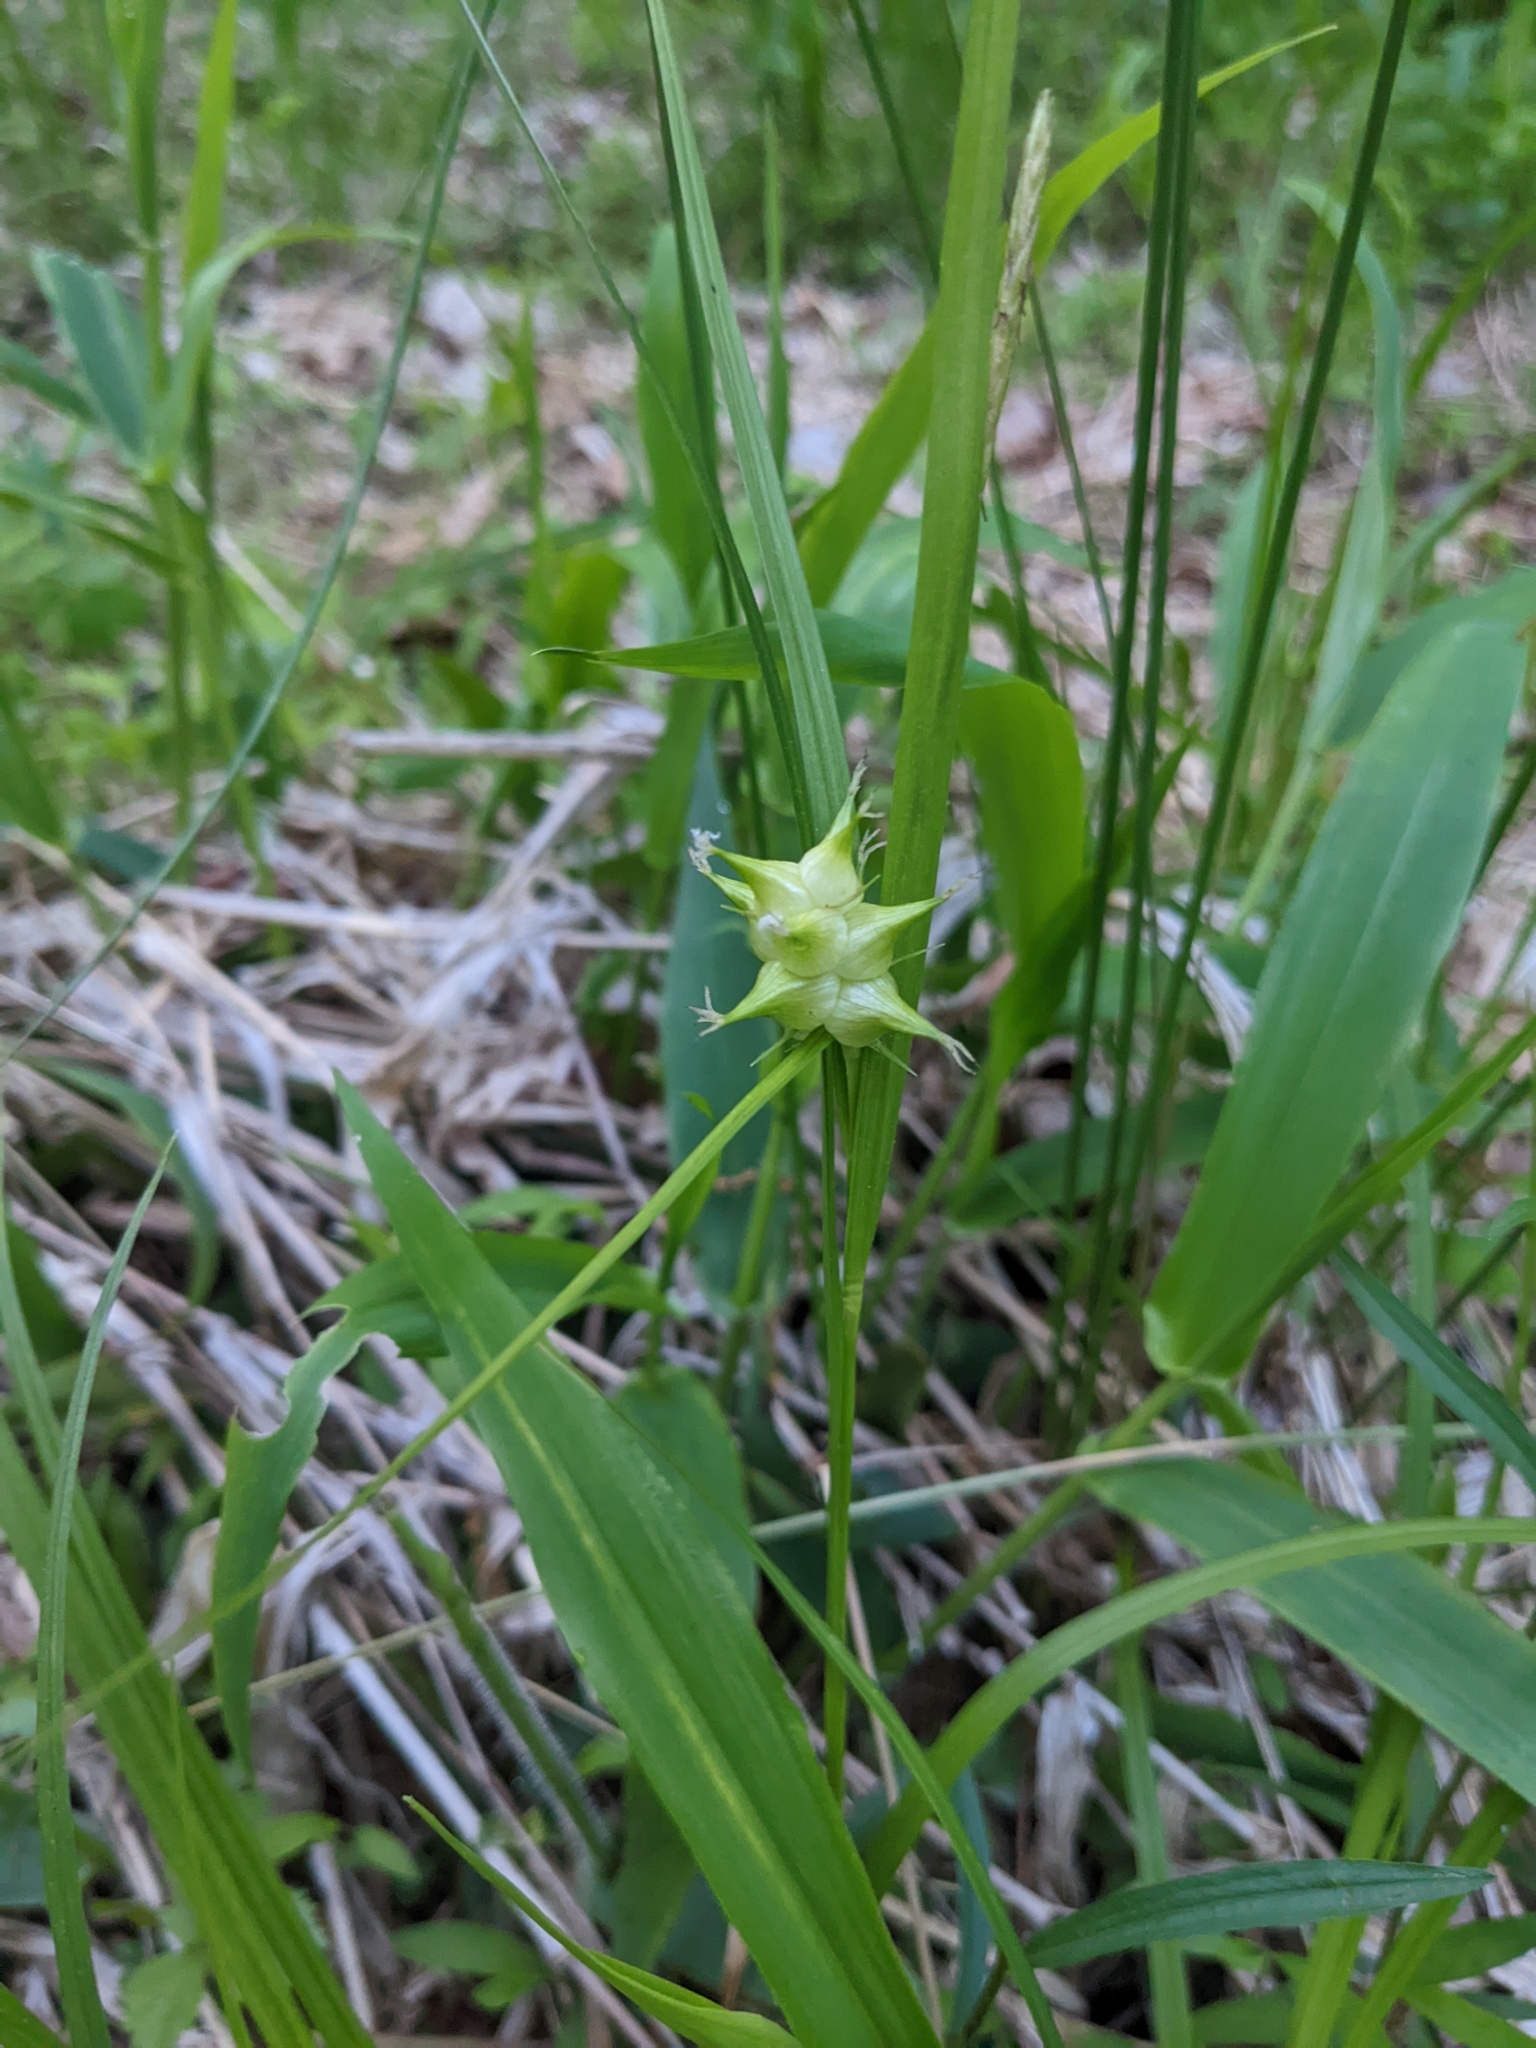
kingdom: Plantae
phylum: Tracheophyta
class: Liliopsida
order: Poales
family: Cyperaceae
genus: Carex
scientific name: Carex intumescens
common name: Greater bladder sedge
